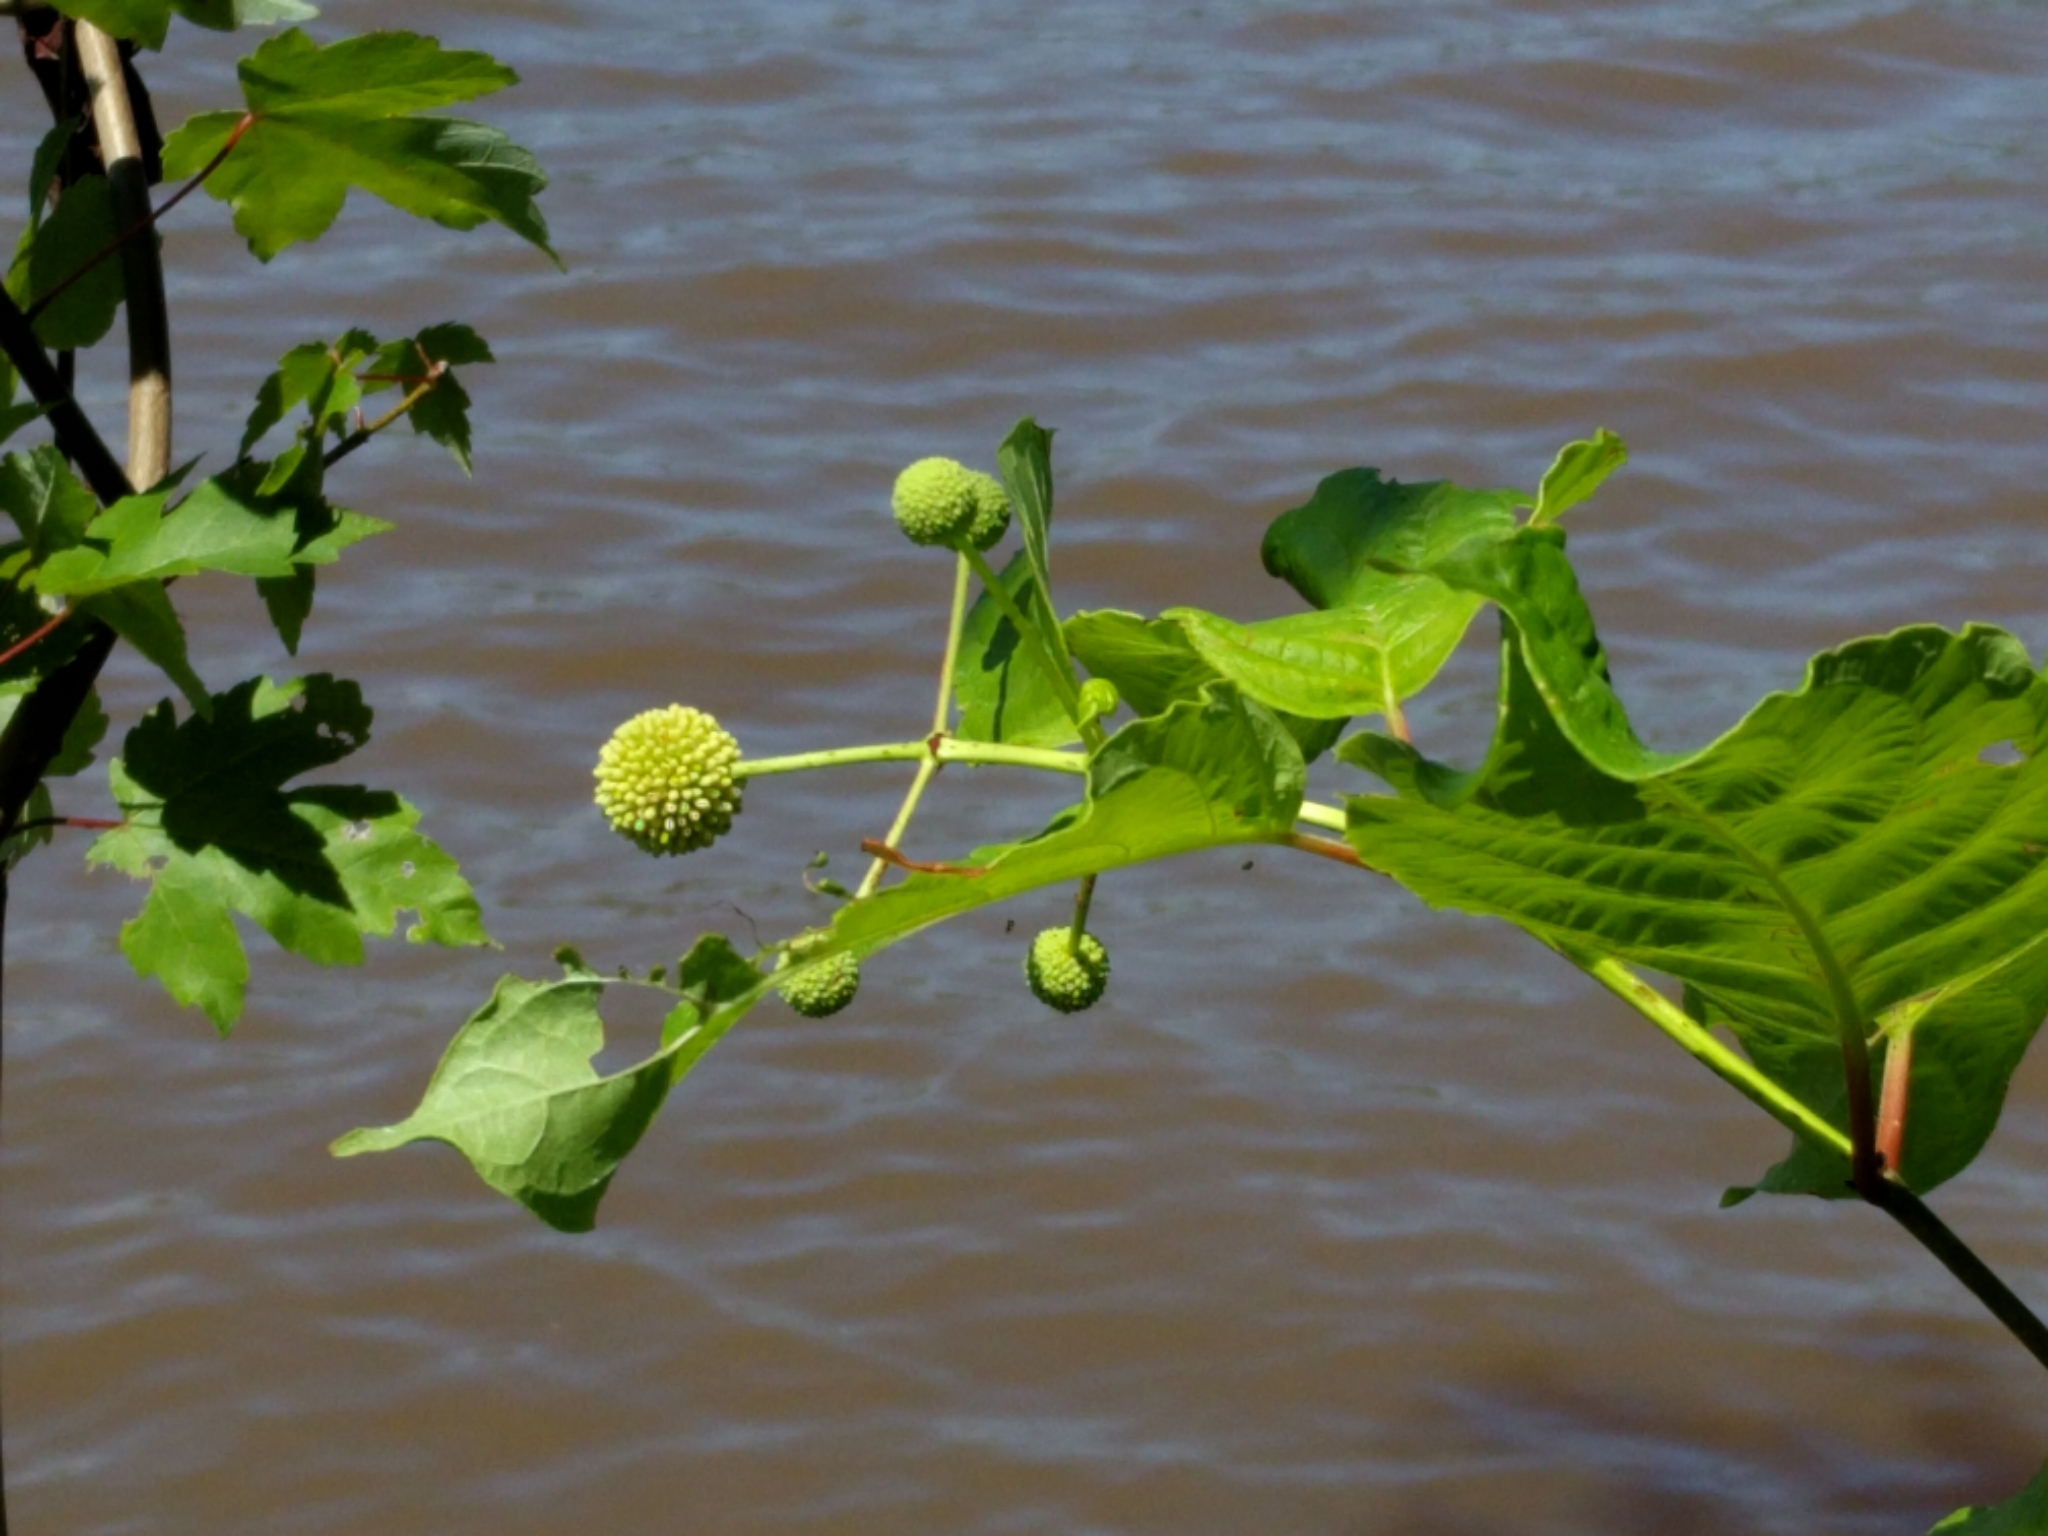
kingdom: Plantae
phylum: Tracheophyta
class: Magnoliopsida
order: Gentianales
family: Rubiaceae
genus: Cephalanthus
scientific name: Cephalanthus occidentalis
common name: Button-willow
